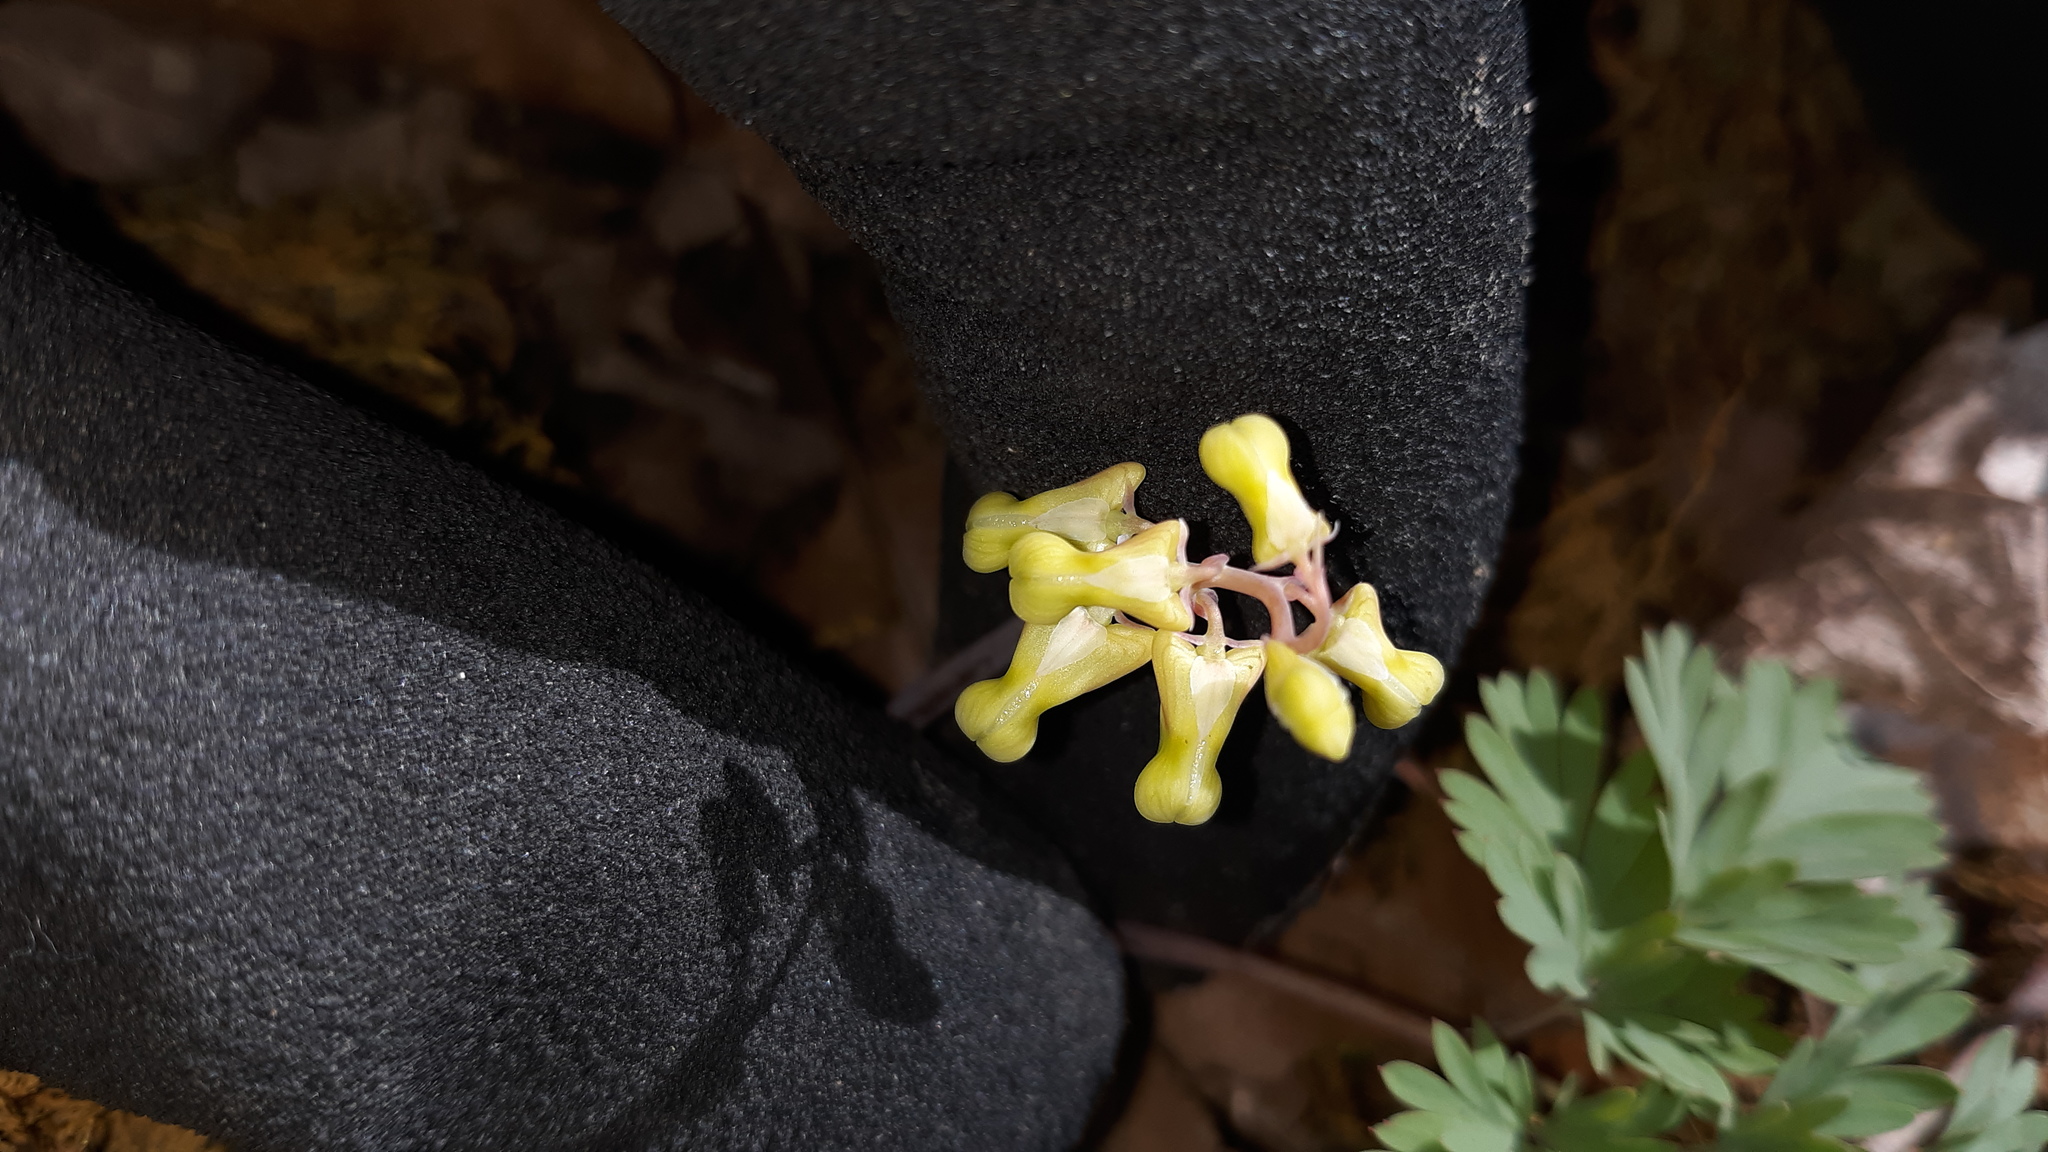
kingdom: Plantae
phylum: Tracheophyta
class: Magnoliopsida
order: Ranunculales
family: Papaveraceae
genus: Dicentra
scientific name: Dicentra cucullaria
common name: Dutchman's breeches
